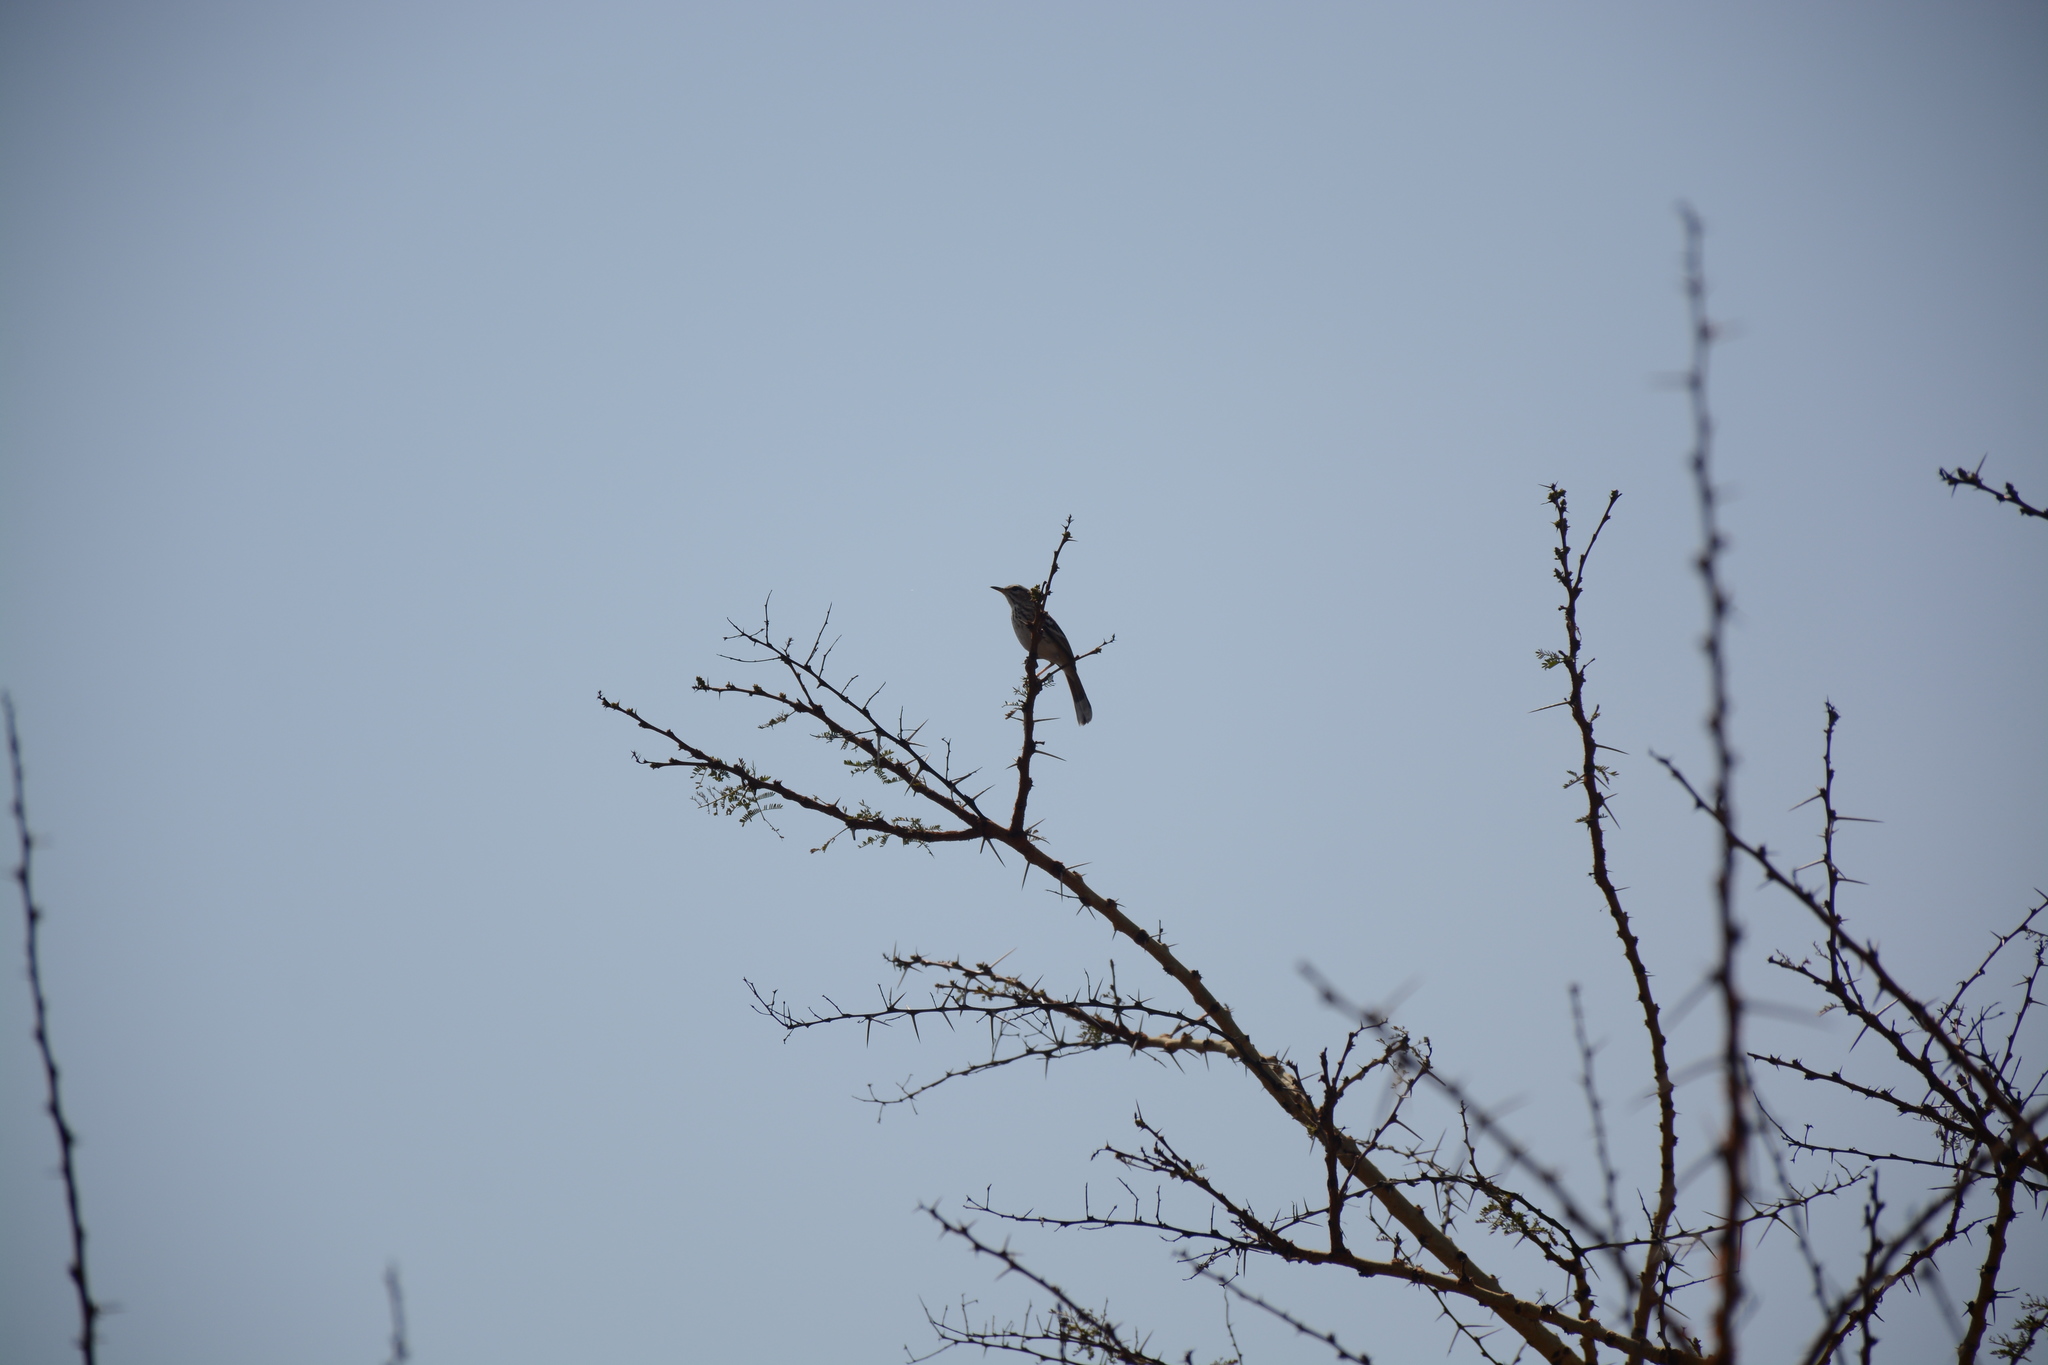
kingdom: Animalia
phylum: Chordata
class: Aves
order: Passeriformes
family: Muscicapidae
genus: Erythropygia
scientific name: Erythropygia leucophrys
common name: White-browed scrub robin
